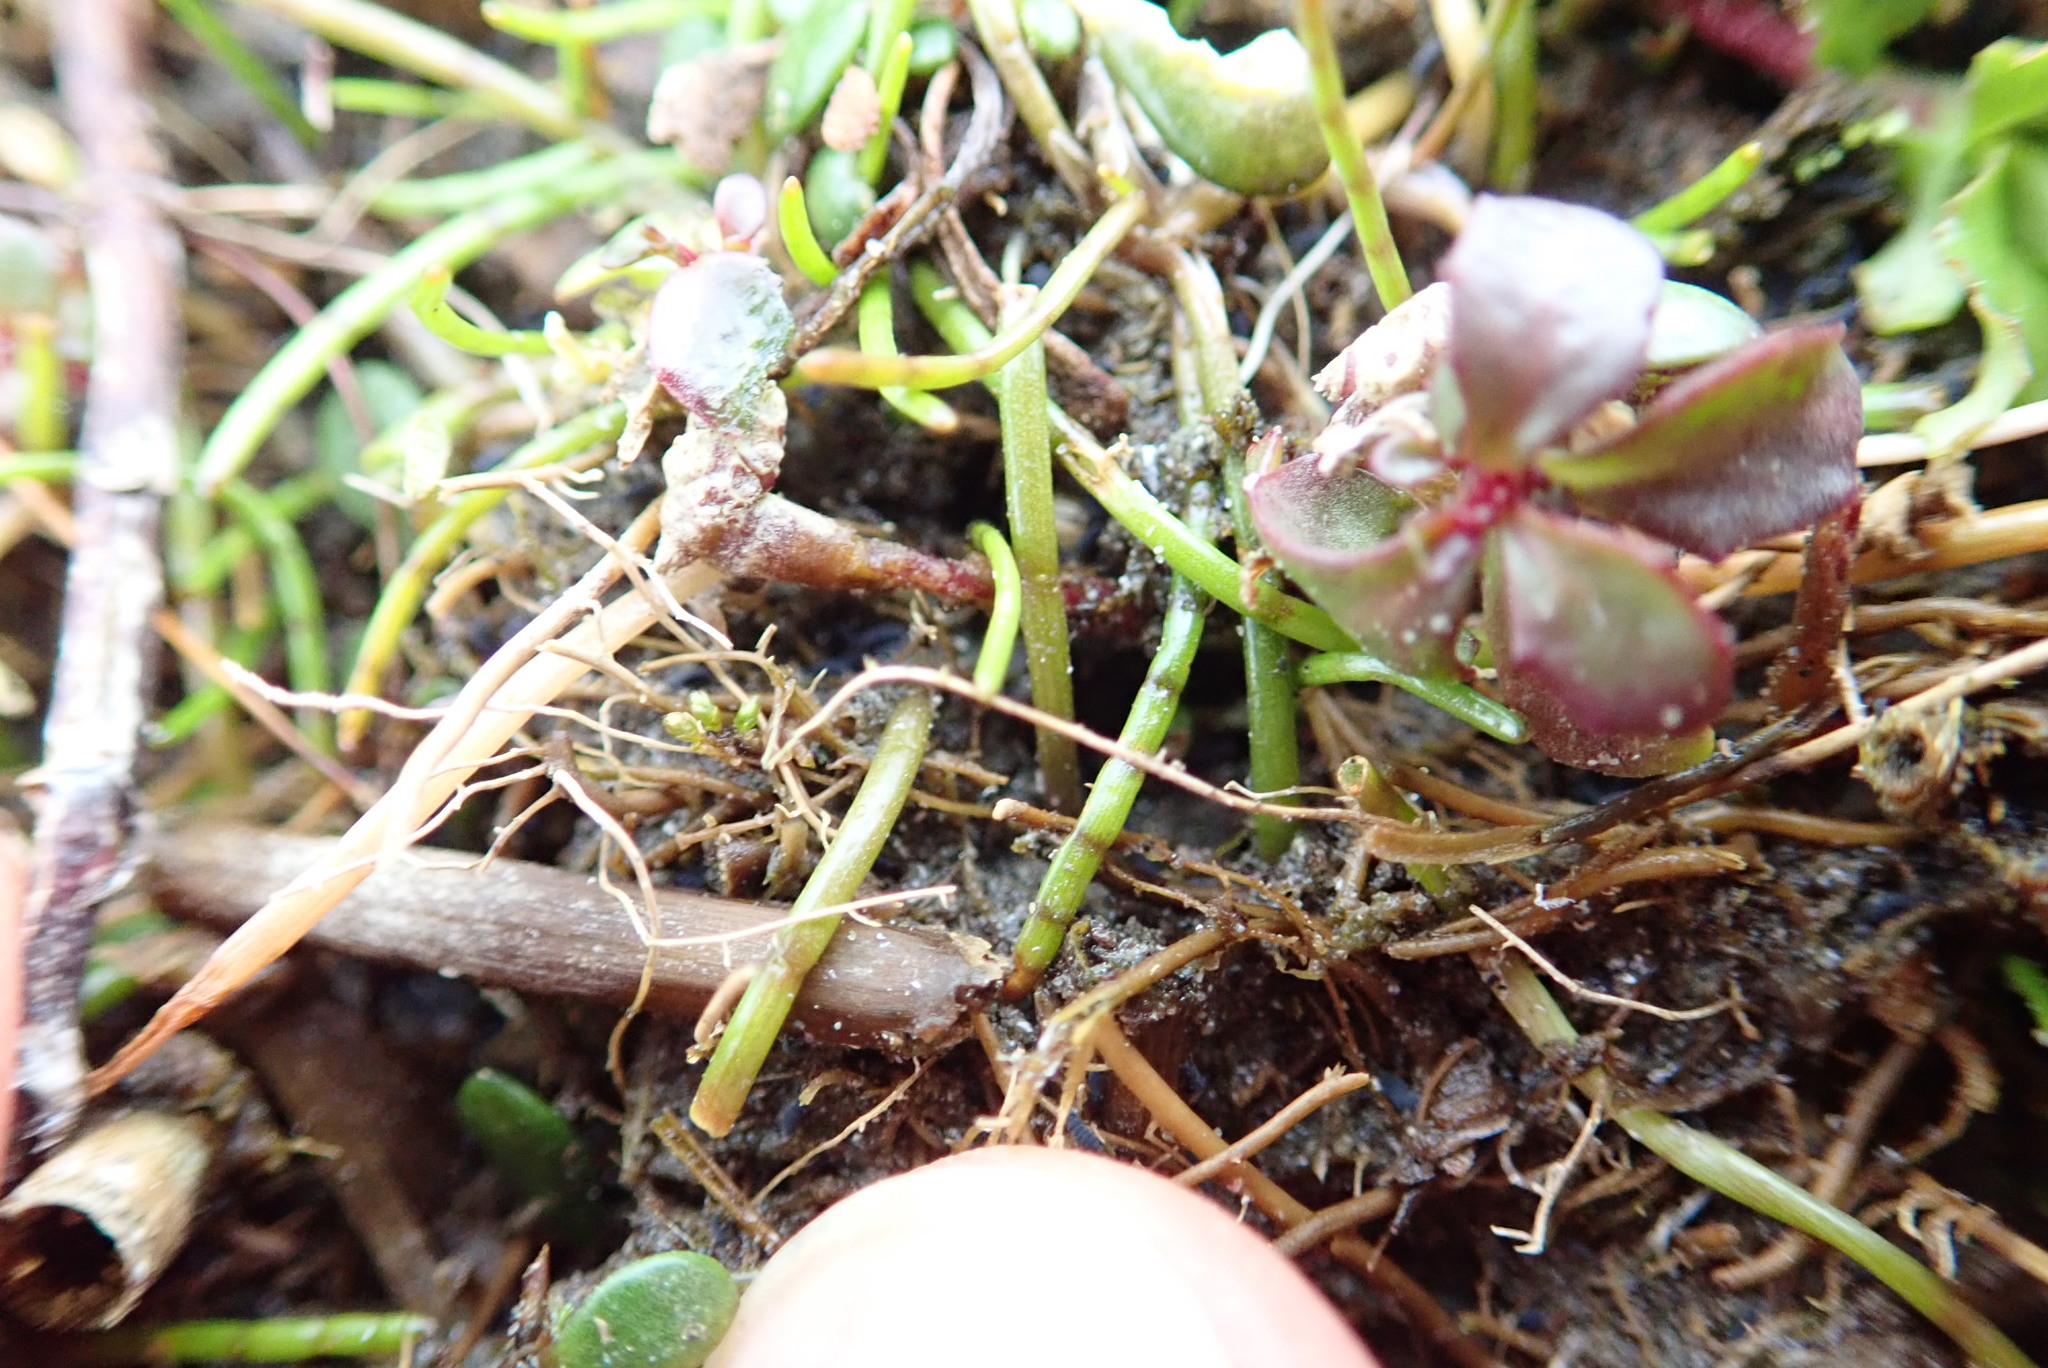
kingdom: Plantae
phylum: Tracheophyta
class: Magnoliopsida
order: Apiales
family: Apiaceae
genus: Lilaeopsis
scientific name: Lilaeopsis novae-zelandiae
